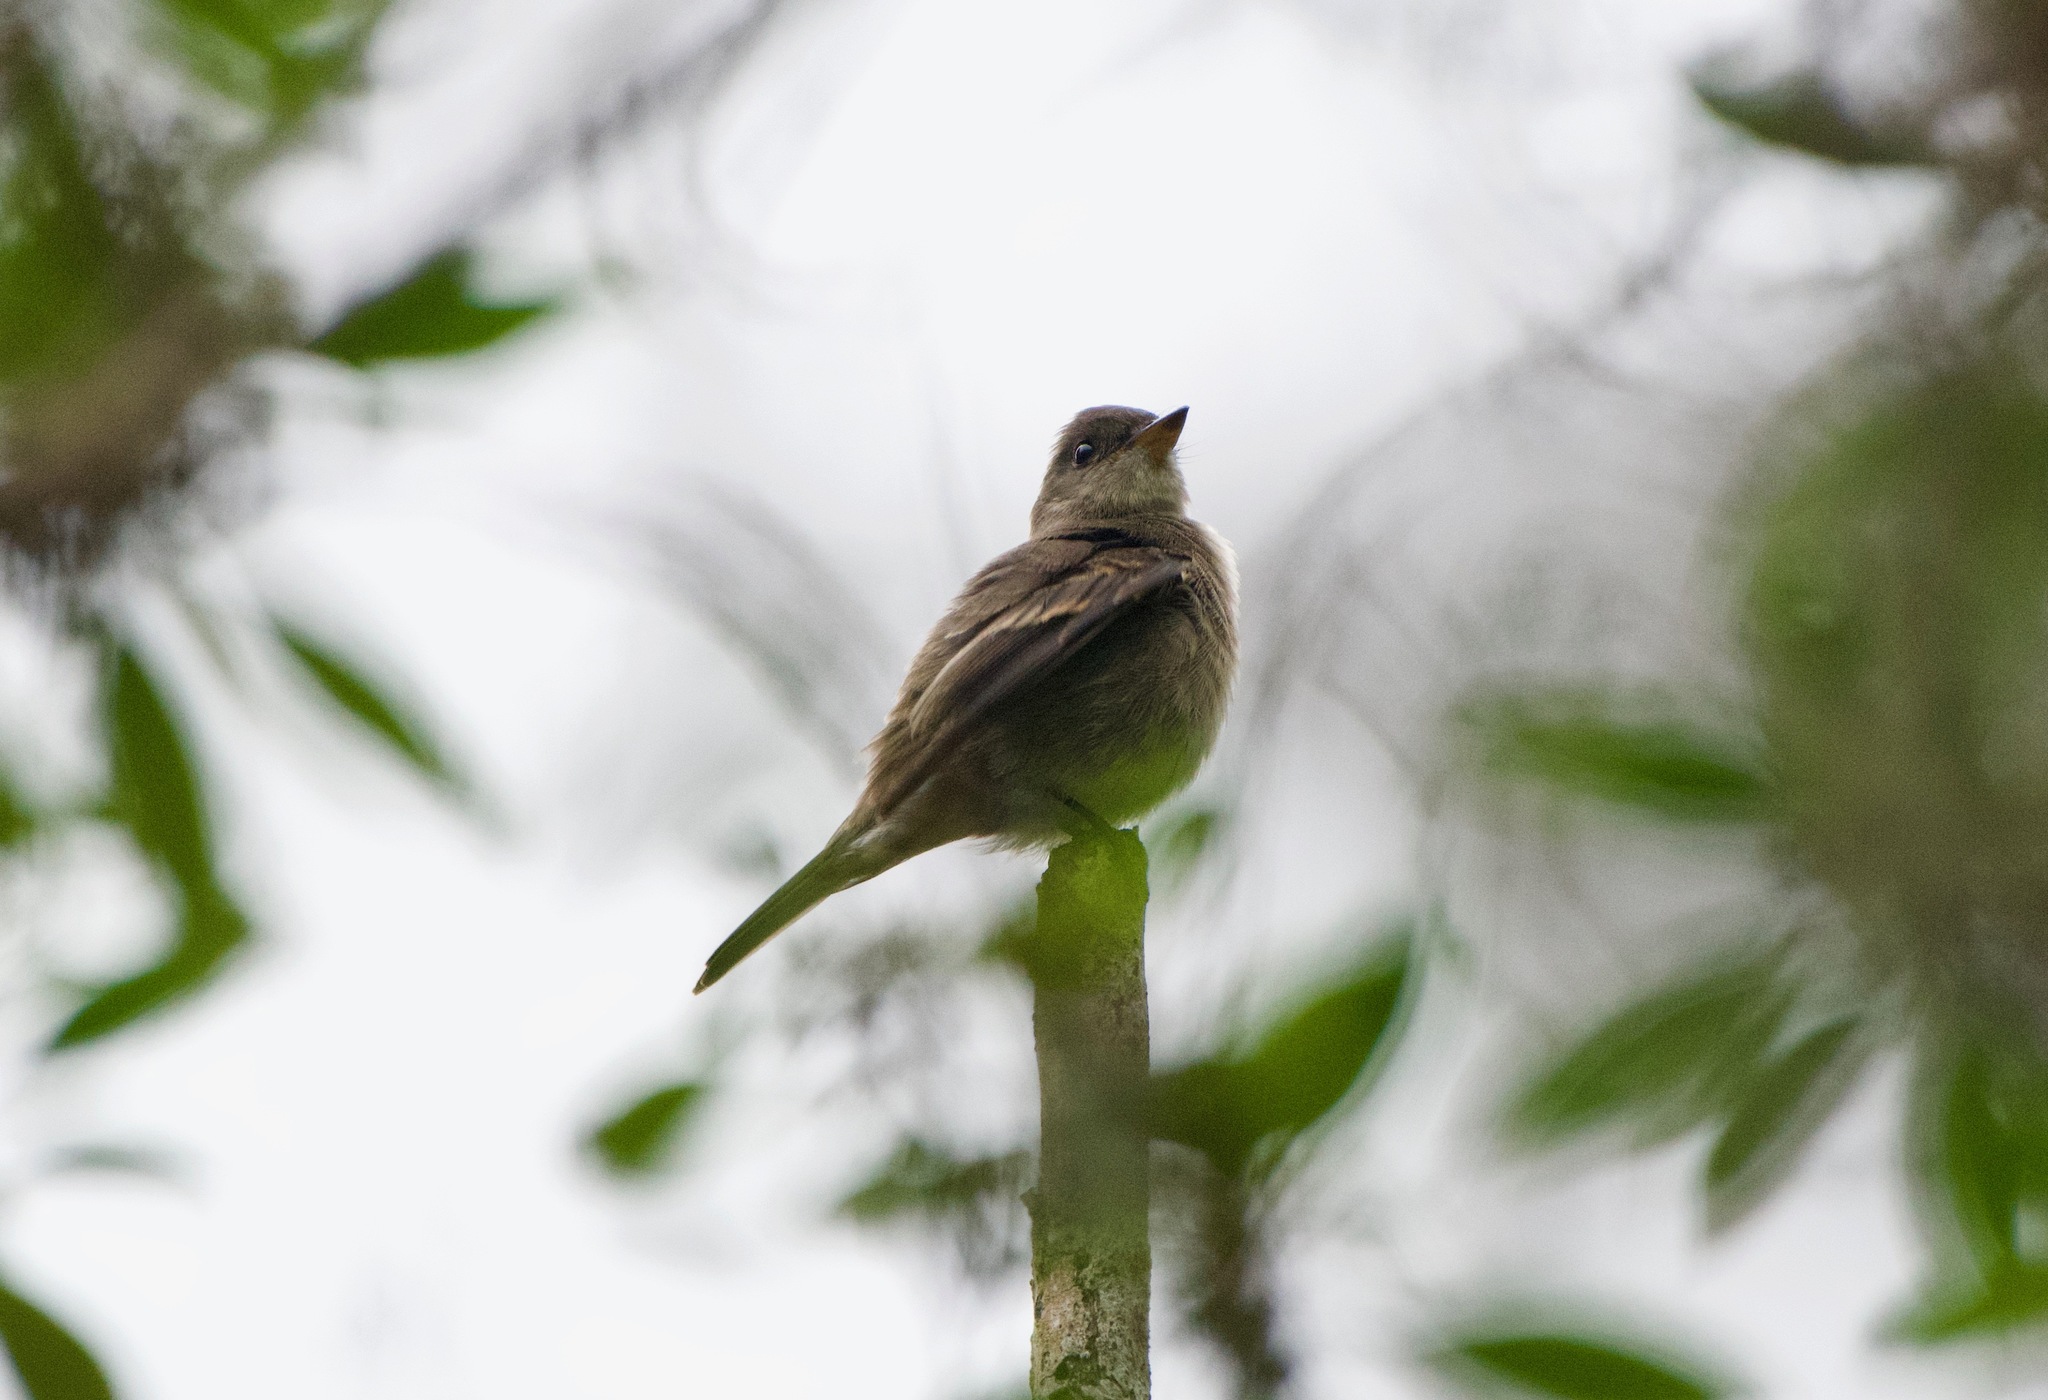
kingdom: Animalia
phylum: Chordata
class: Aves
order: Passeriformes
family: Tyrannidae
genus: Contopus
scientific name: Contopus sordidulus
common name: Western wood-pewee
